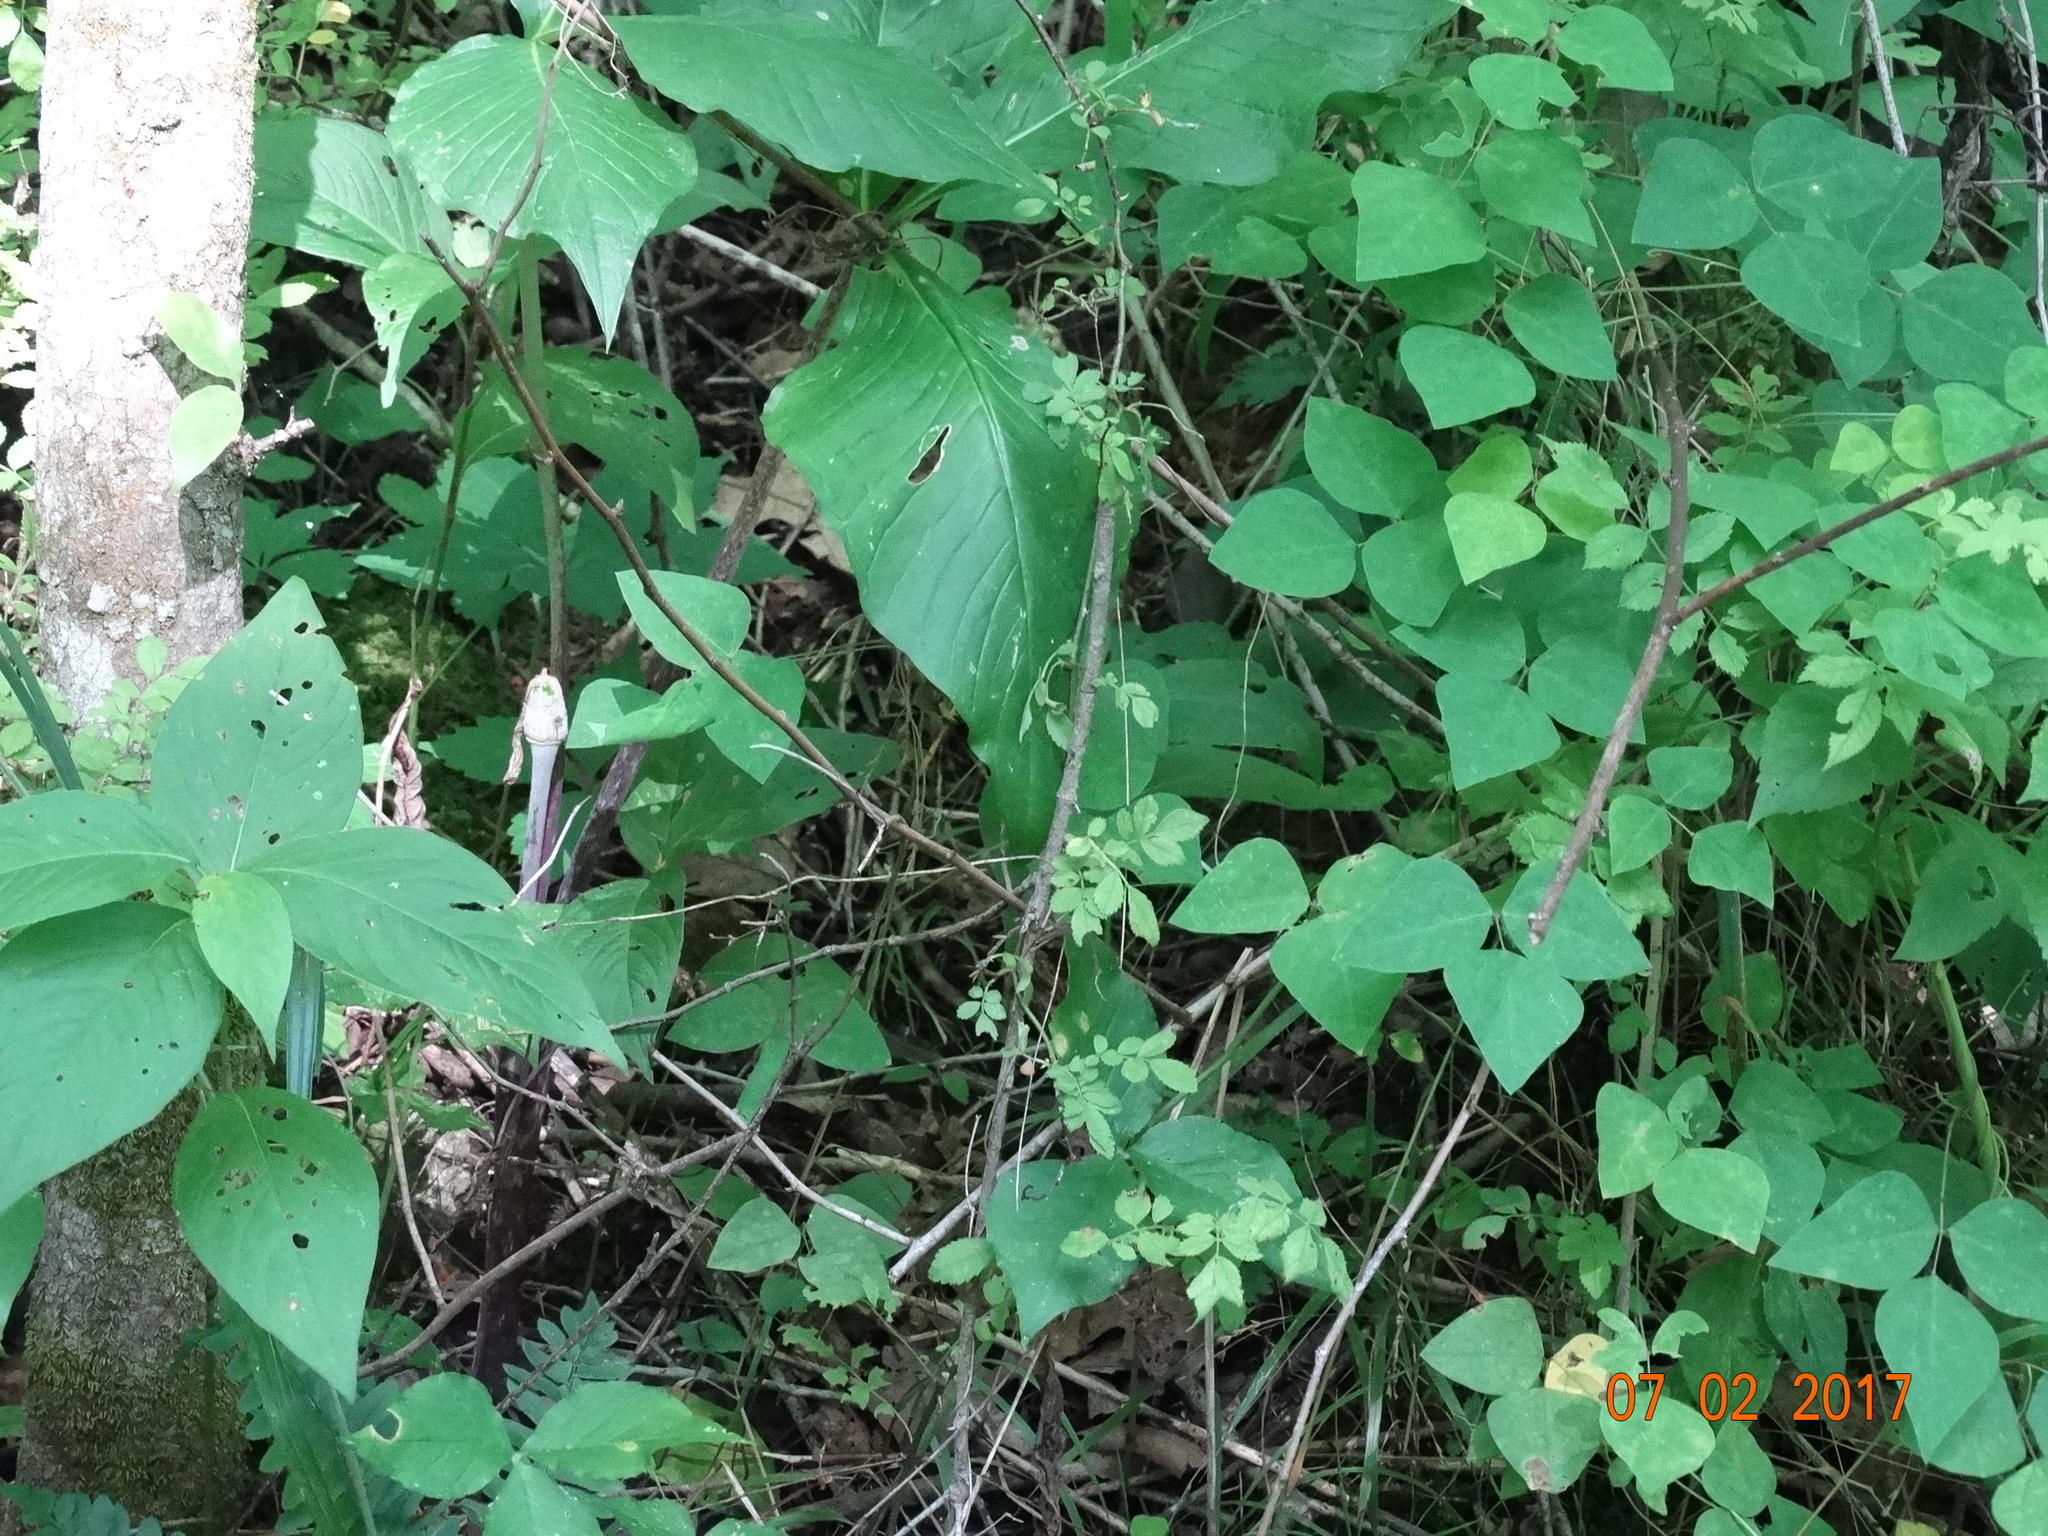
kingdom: Plantae
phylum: Tracheophyta
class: Magnoliopsida
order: Fabales
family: Fabaceae
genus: Amphicarpaea
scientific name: Amphicarpaea bracteata
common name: American hog peanut
